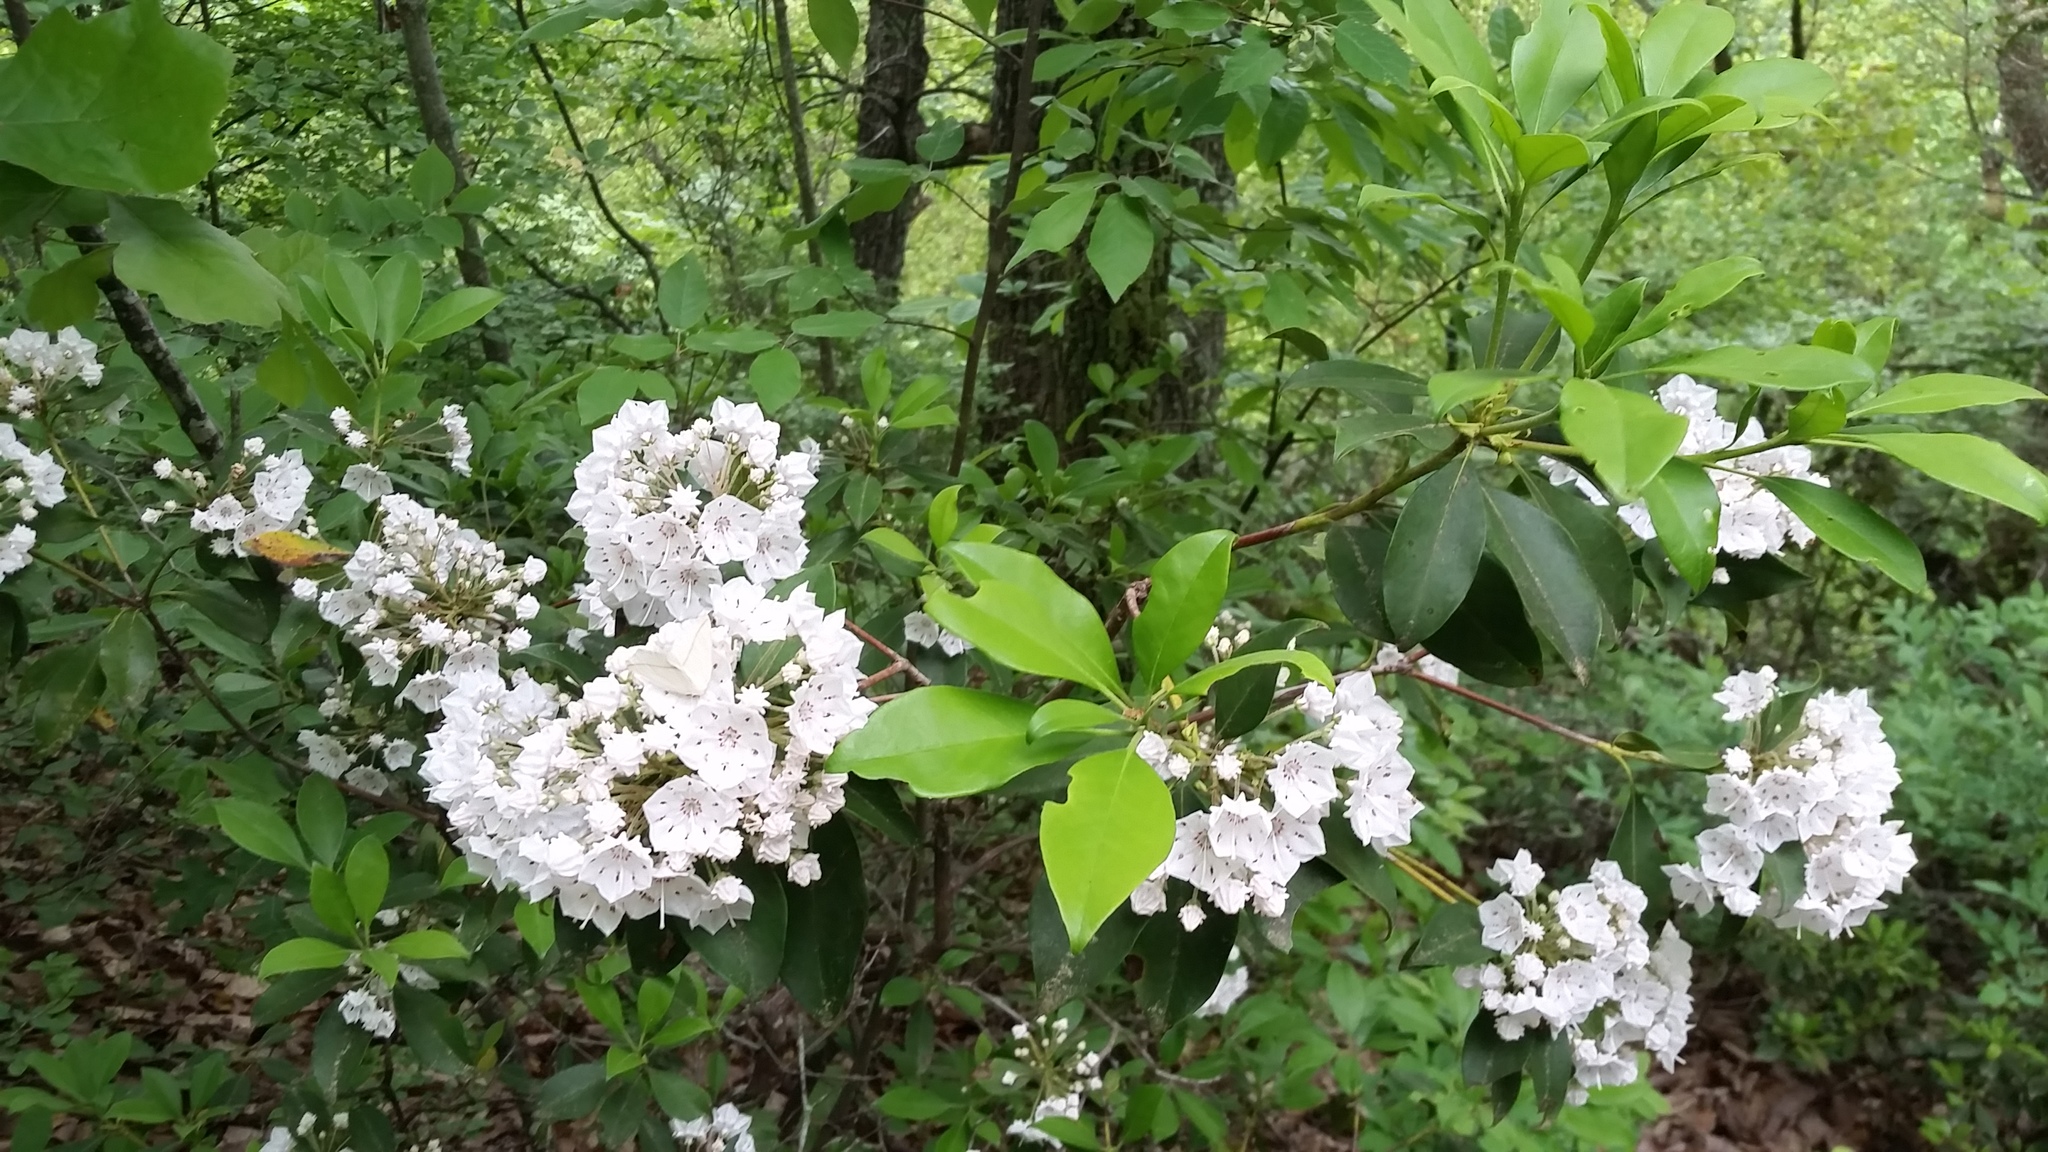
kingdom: Plantae
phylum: Tracheophyta
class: Magnoliopsida
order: Ericales
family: Ericaceae
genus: Kalmia
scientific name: Kalmia latifolia
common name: Mountain-laurel
